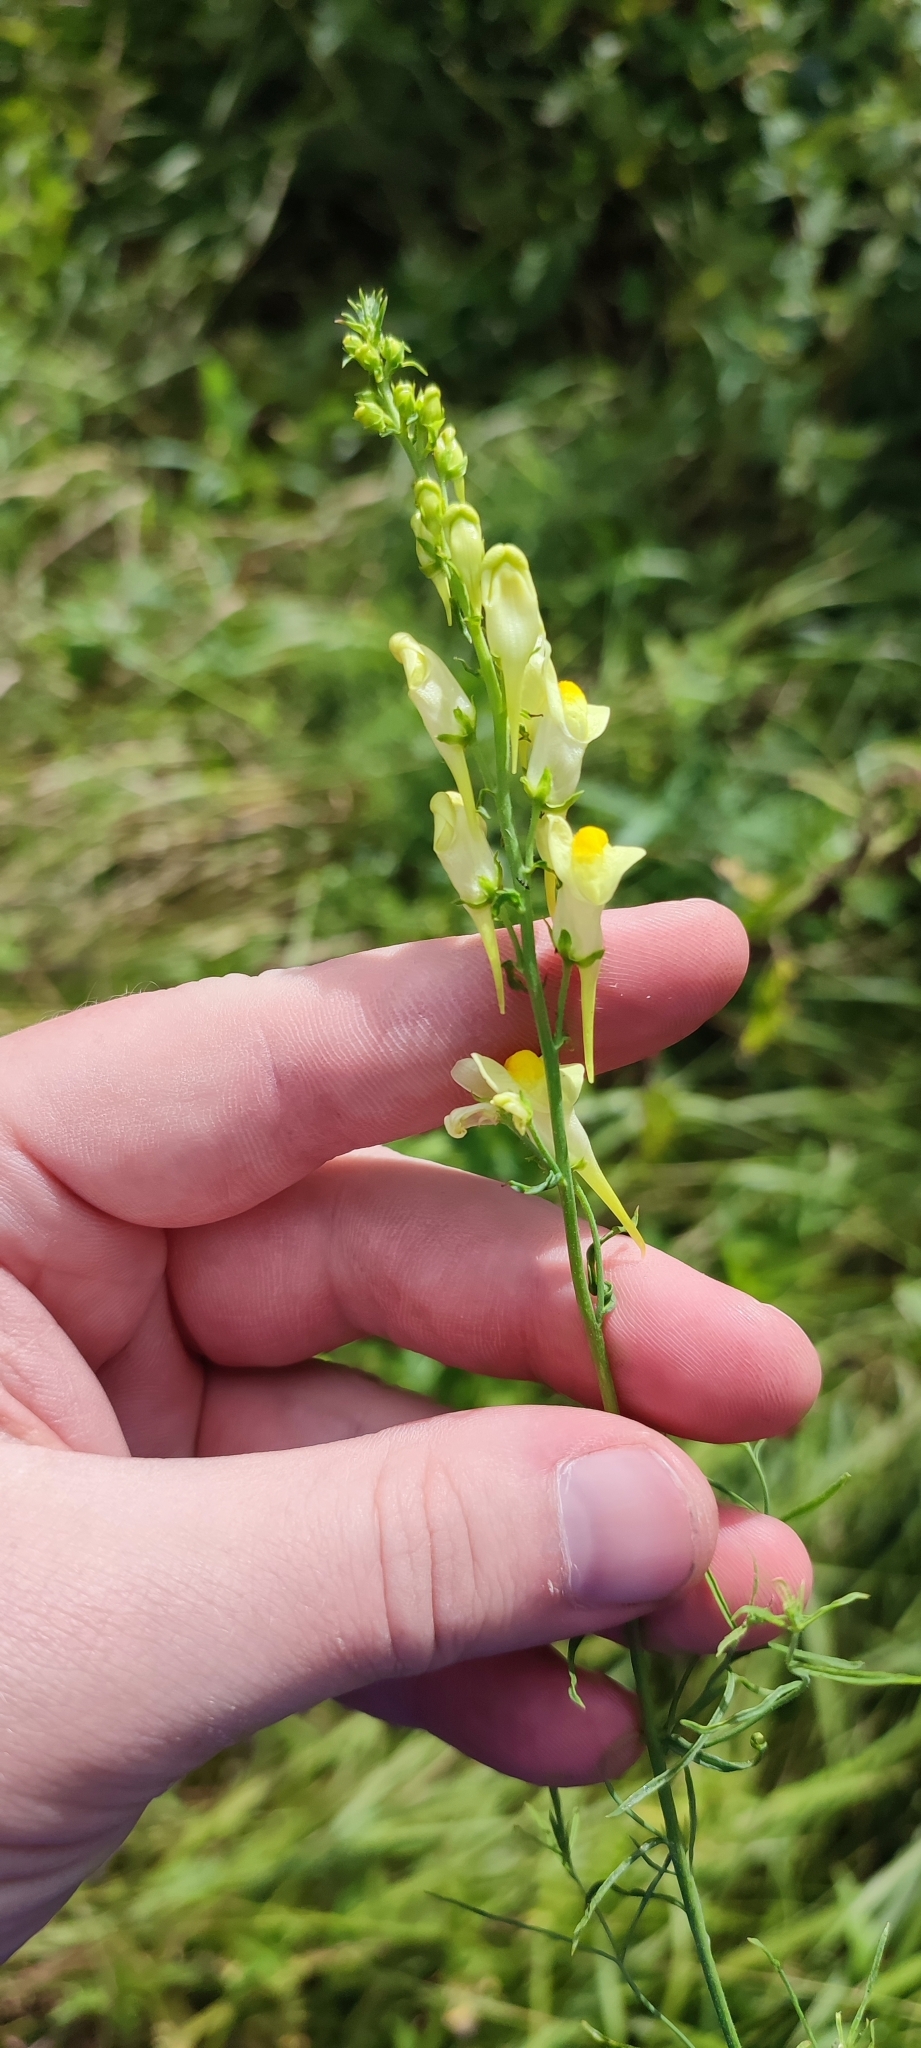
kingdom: Plantae
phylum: Tracheophyta
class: Magnoliopsida
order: Lamiales
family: Plantaginaceae
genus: Linaria
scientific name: Linaria vulgaris
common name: Butter and eggs
